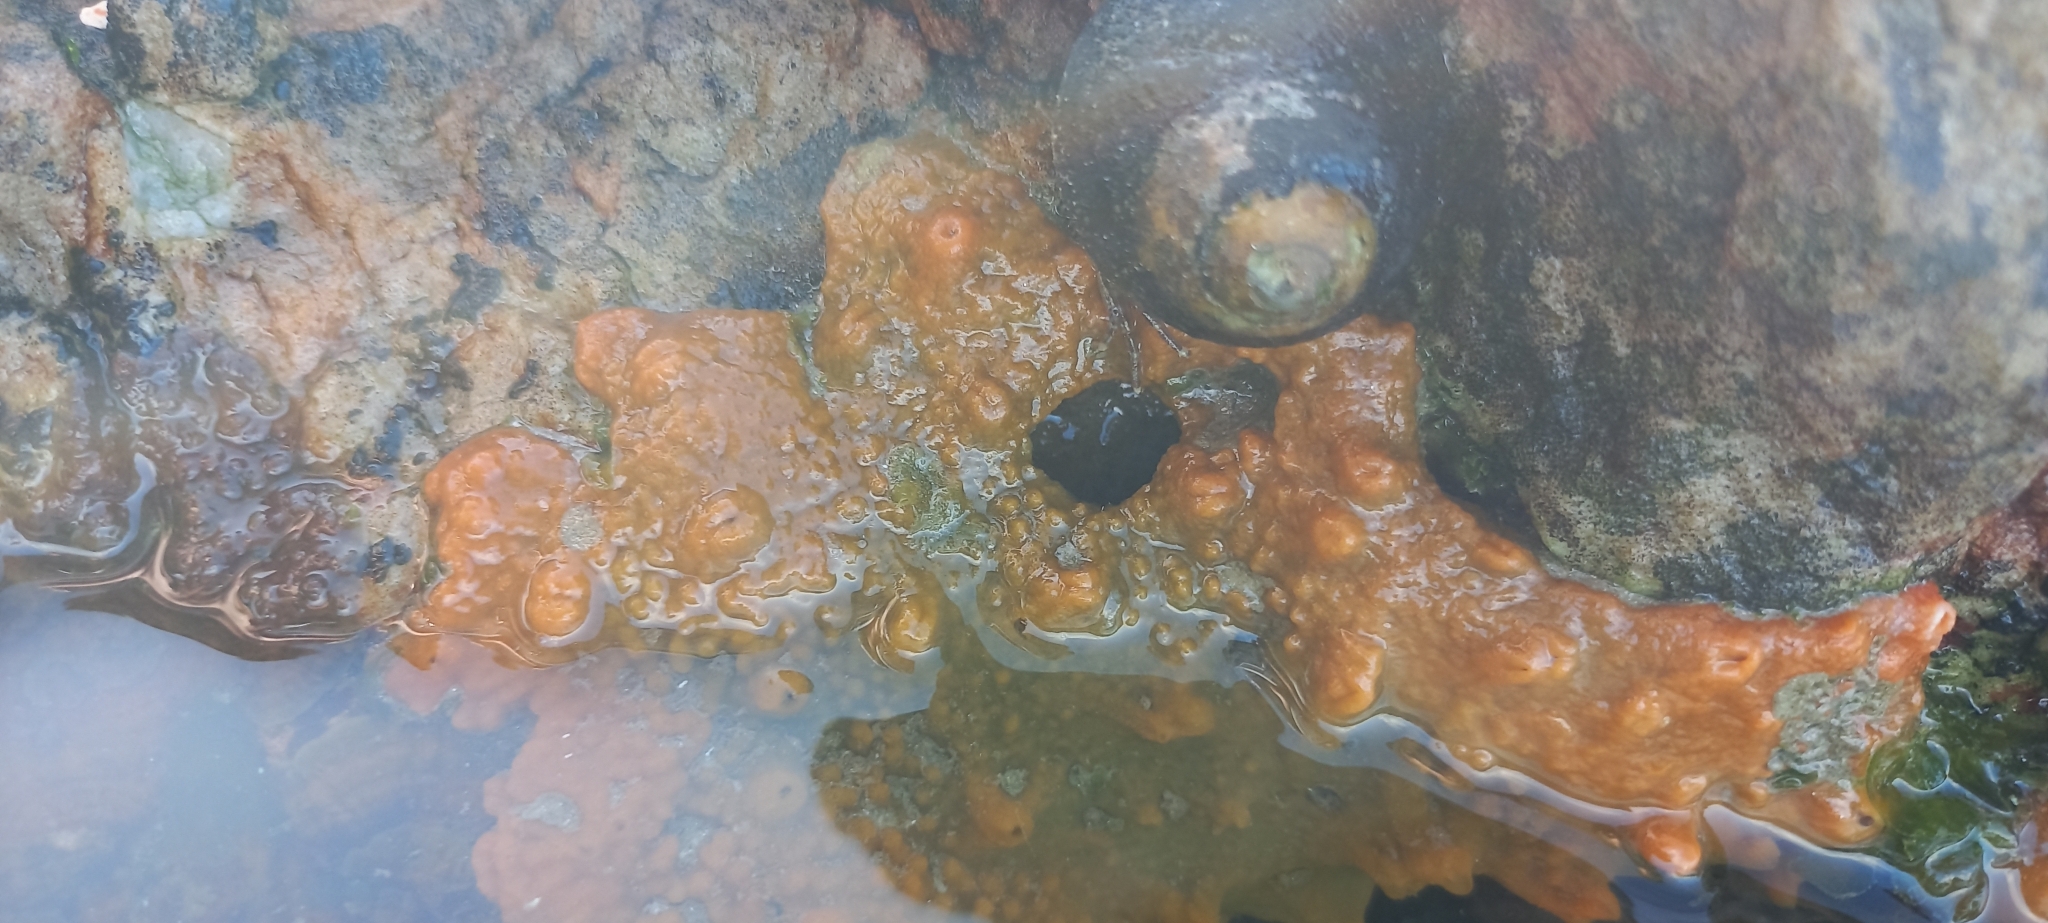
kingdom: Animalia
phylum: Porifera
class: Demospongiae
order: Suberitida
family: Halichondriidae
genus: Hymeniacidon
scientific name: Hymeniacidon perlevis
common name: Crumb-of-bread sponge
